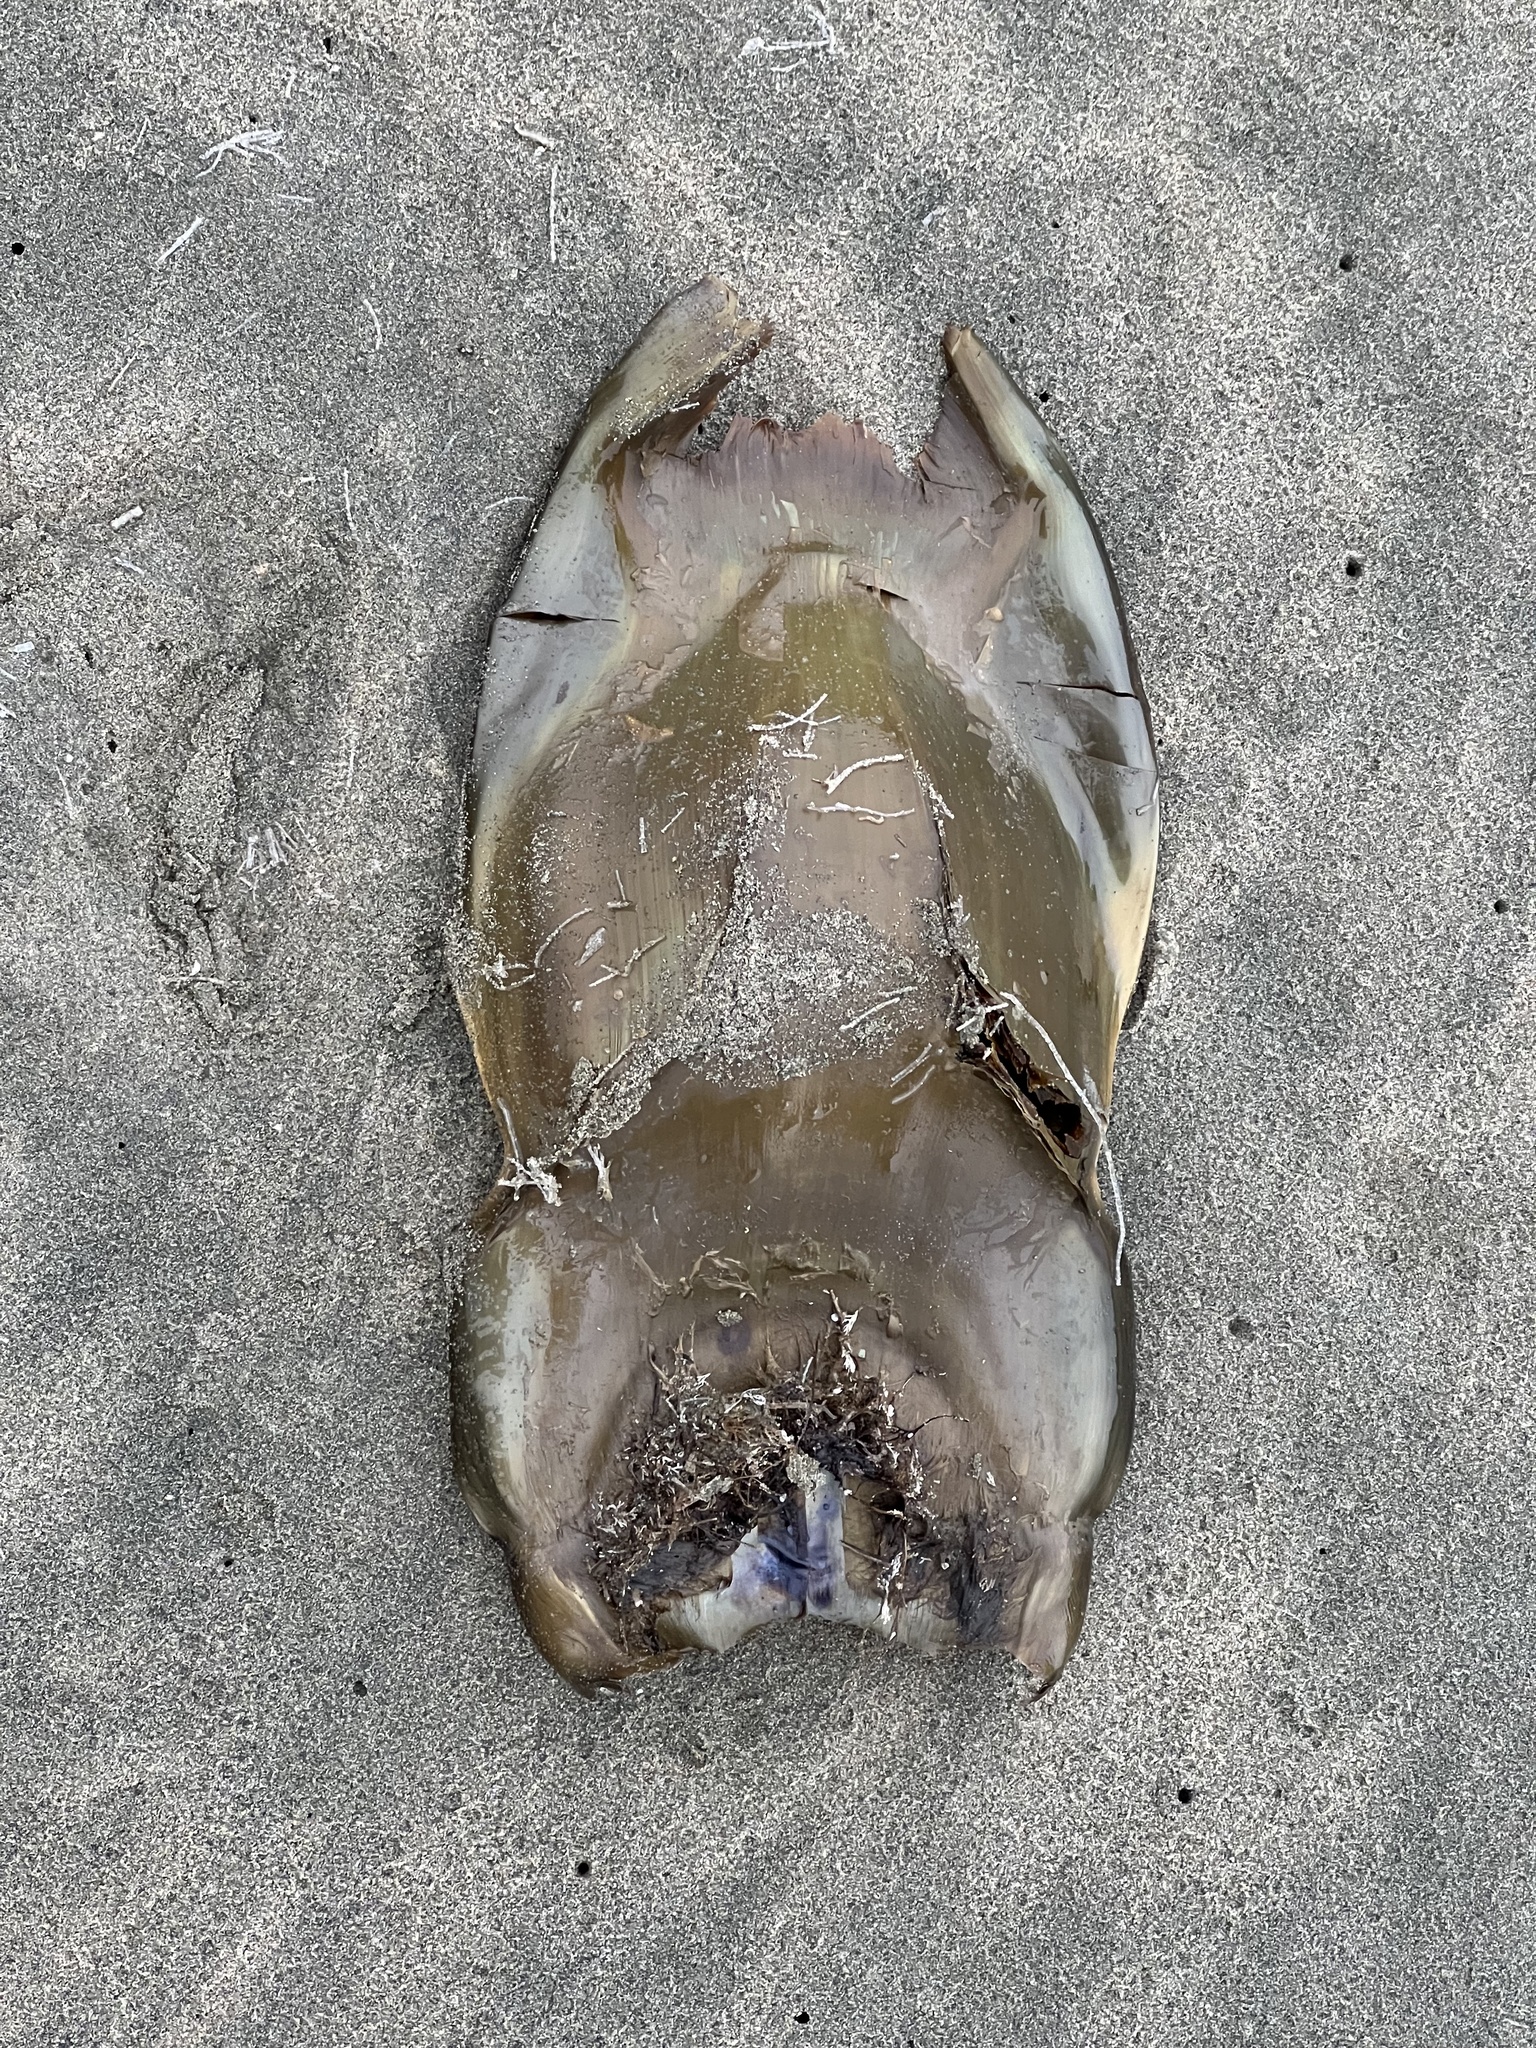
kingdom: Animalia
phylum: Chordata
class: Elasmobranchii
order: Rajiformes
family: Rajidae
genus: Beringraja
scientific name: Beringraja binoculata
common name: Big skate
